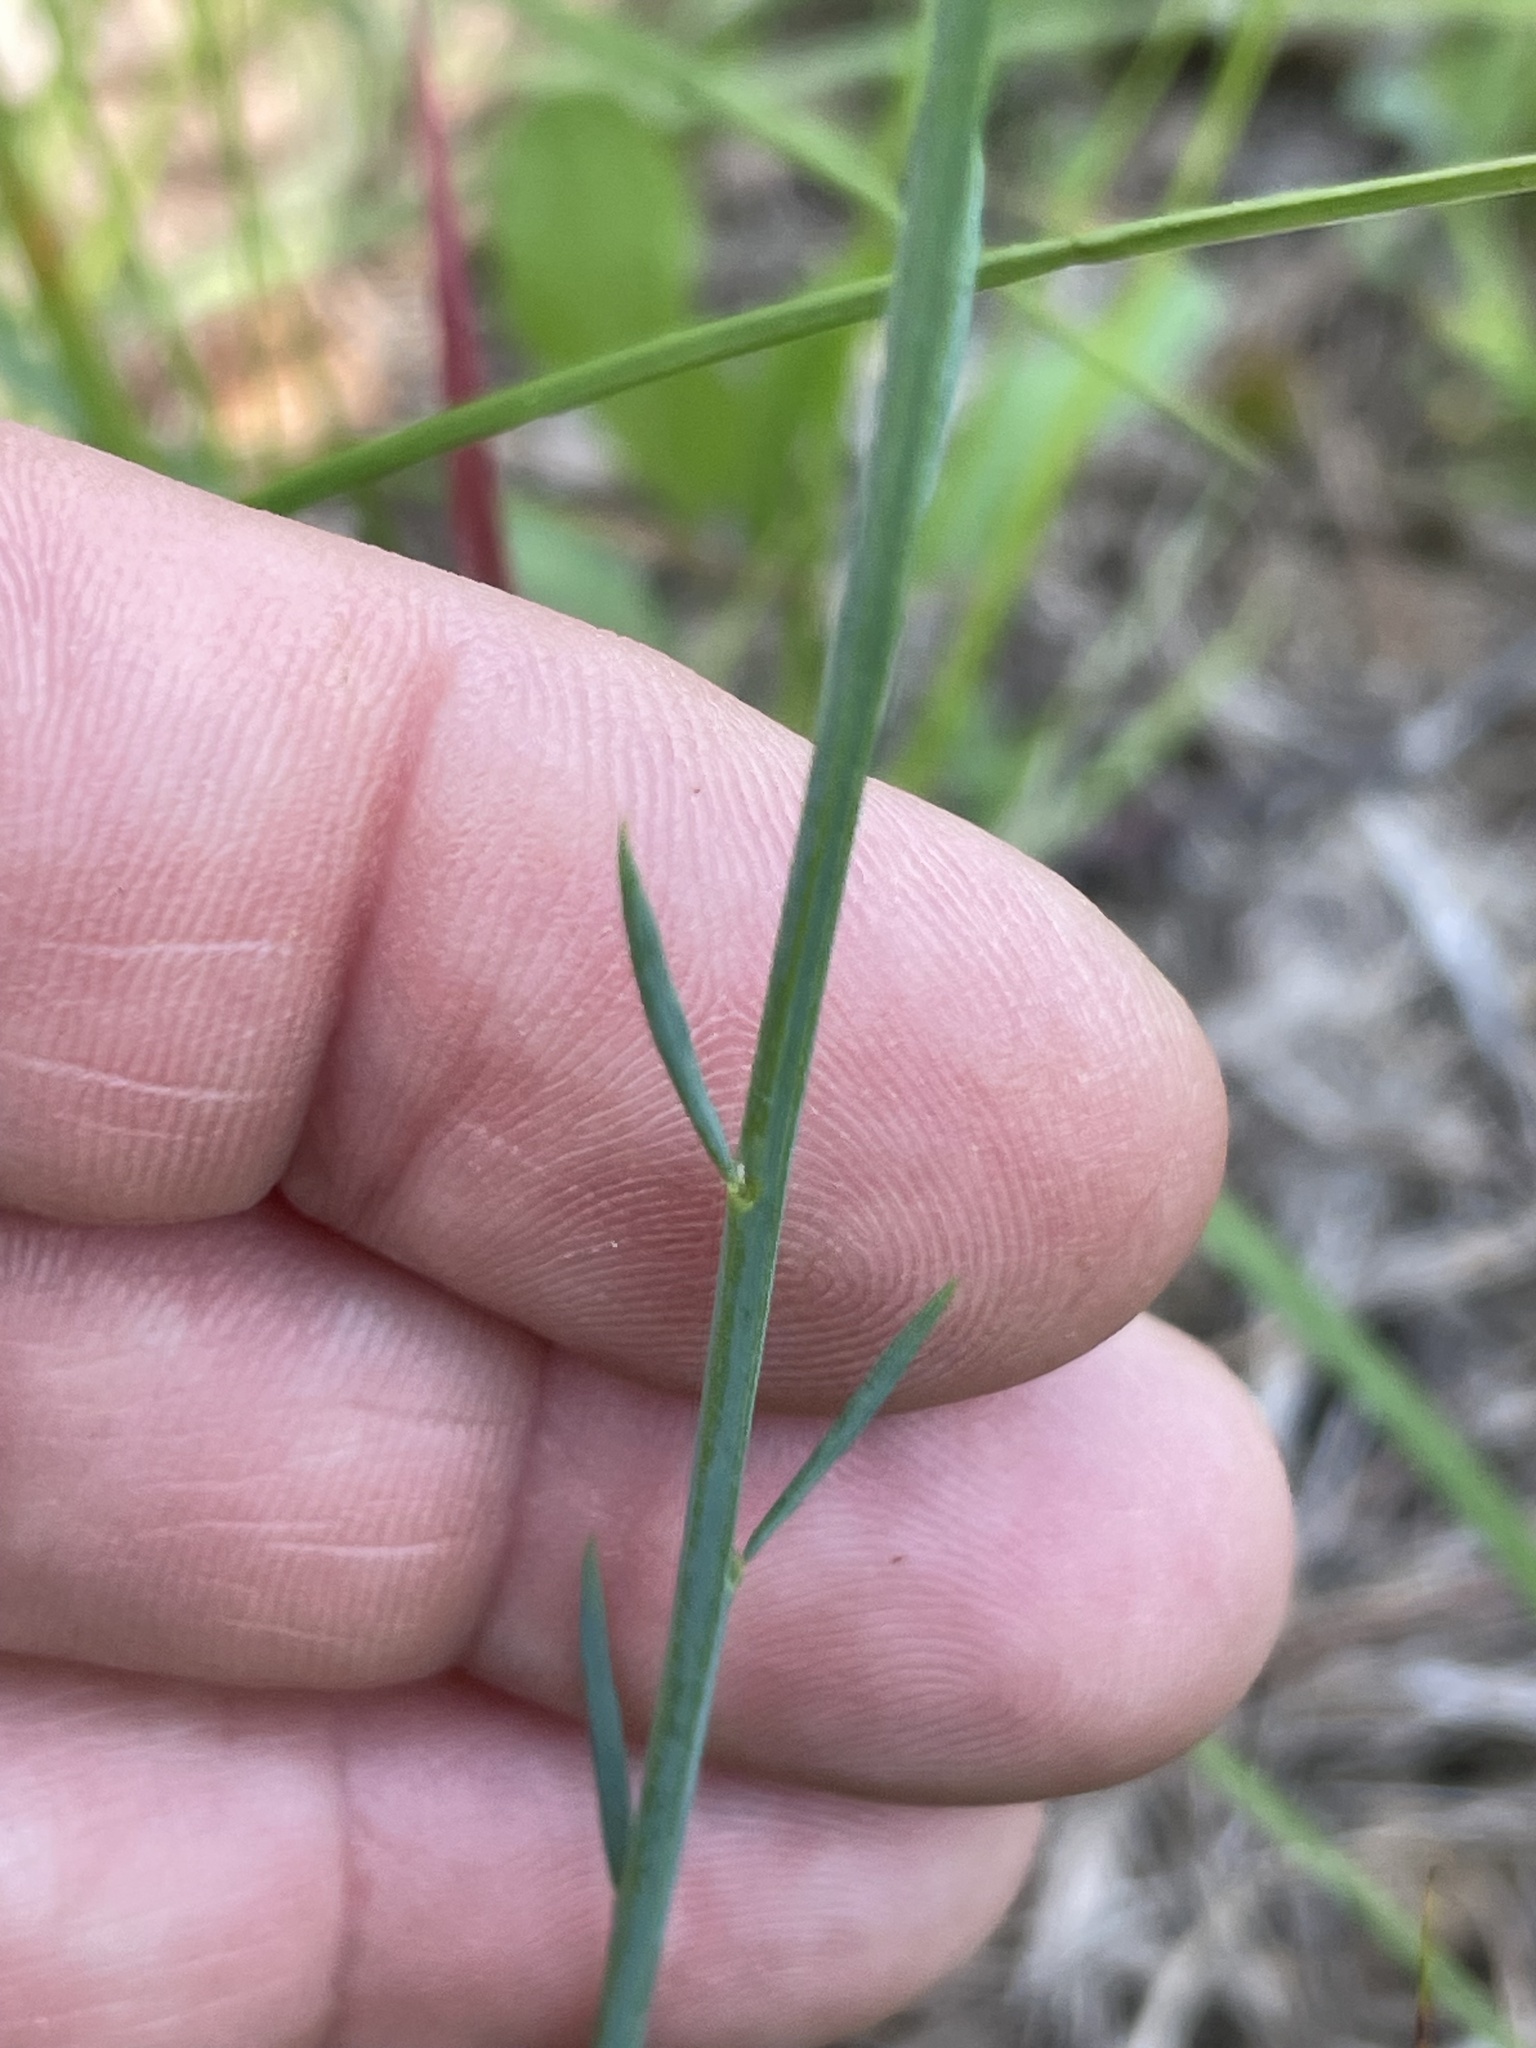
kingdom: Plantae
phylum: Tracheophyta
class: Magnoliopsida
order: Fabales
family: Polygalaceae
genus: Polygala
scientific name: Polygala incarnata
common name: Pink milkwort
